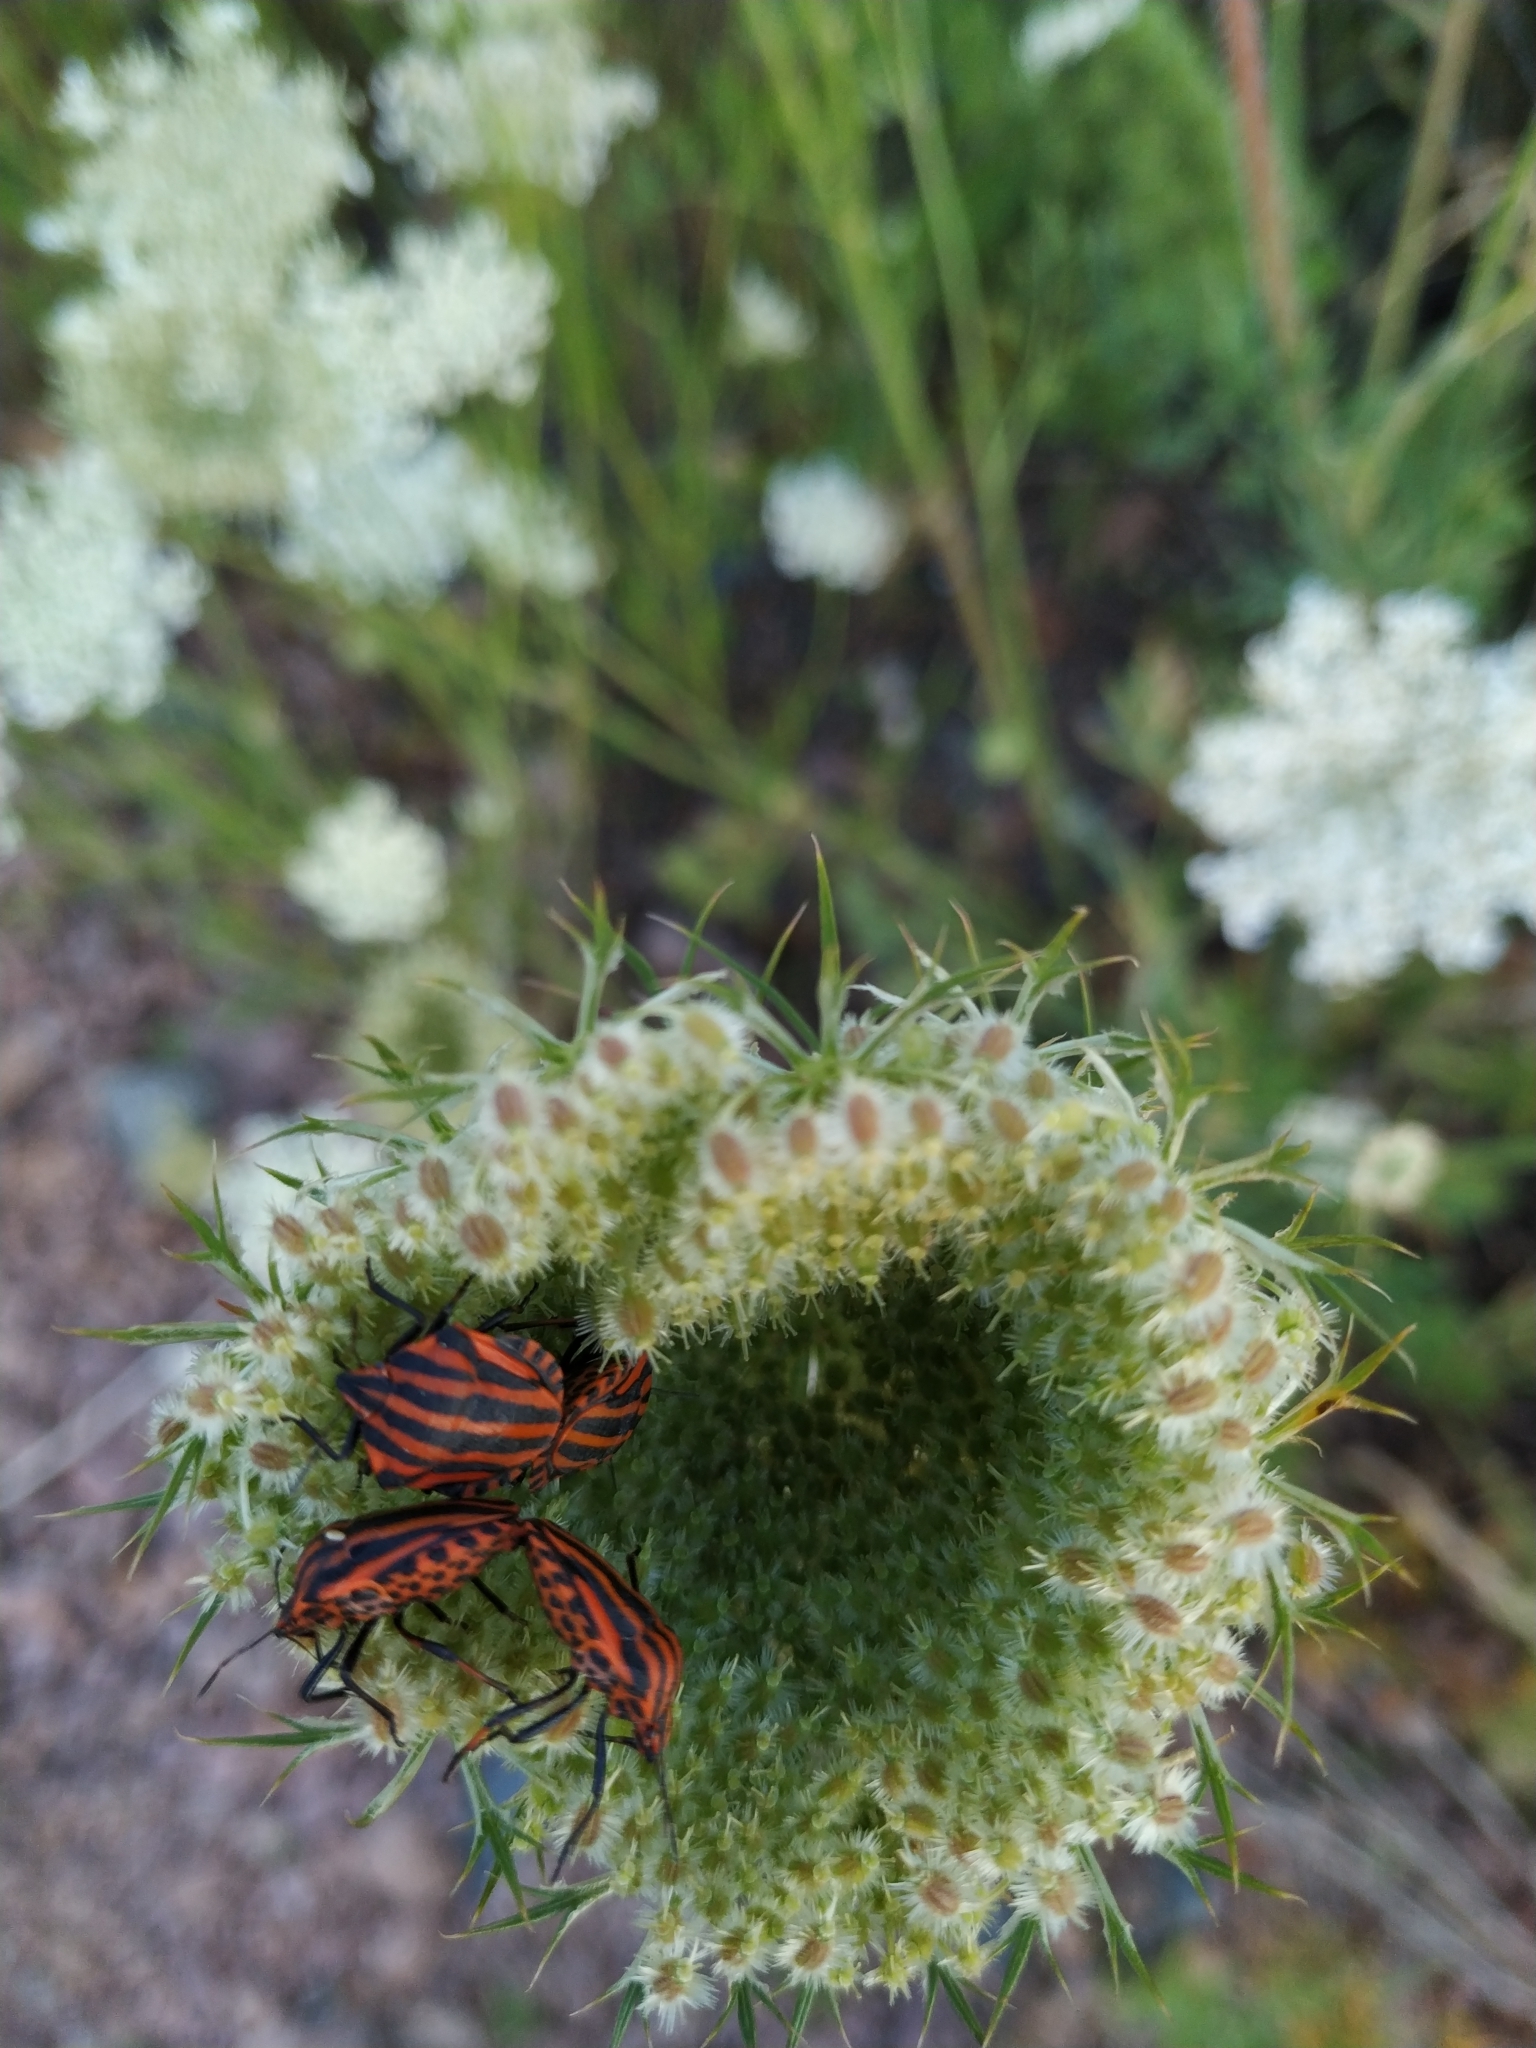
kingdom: Animalia
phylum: Arthropoda
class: Insecta
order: Hemiptera
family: Pentatomidae
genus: Graphosoma
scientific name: Graphosoma italicum
